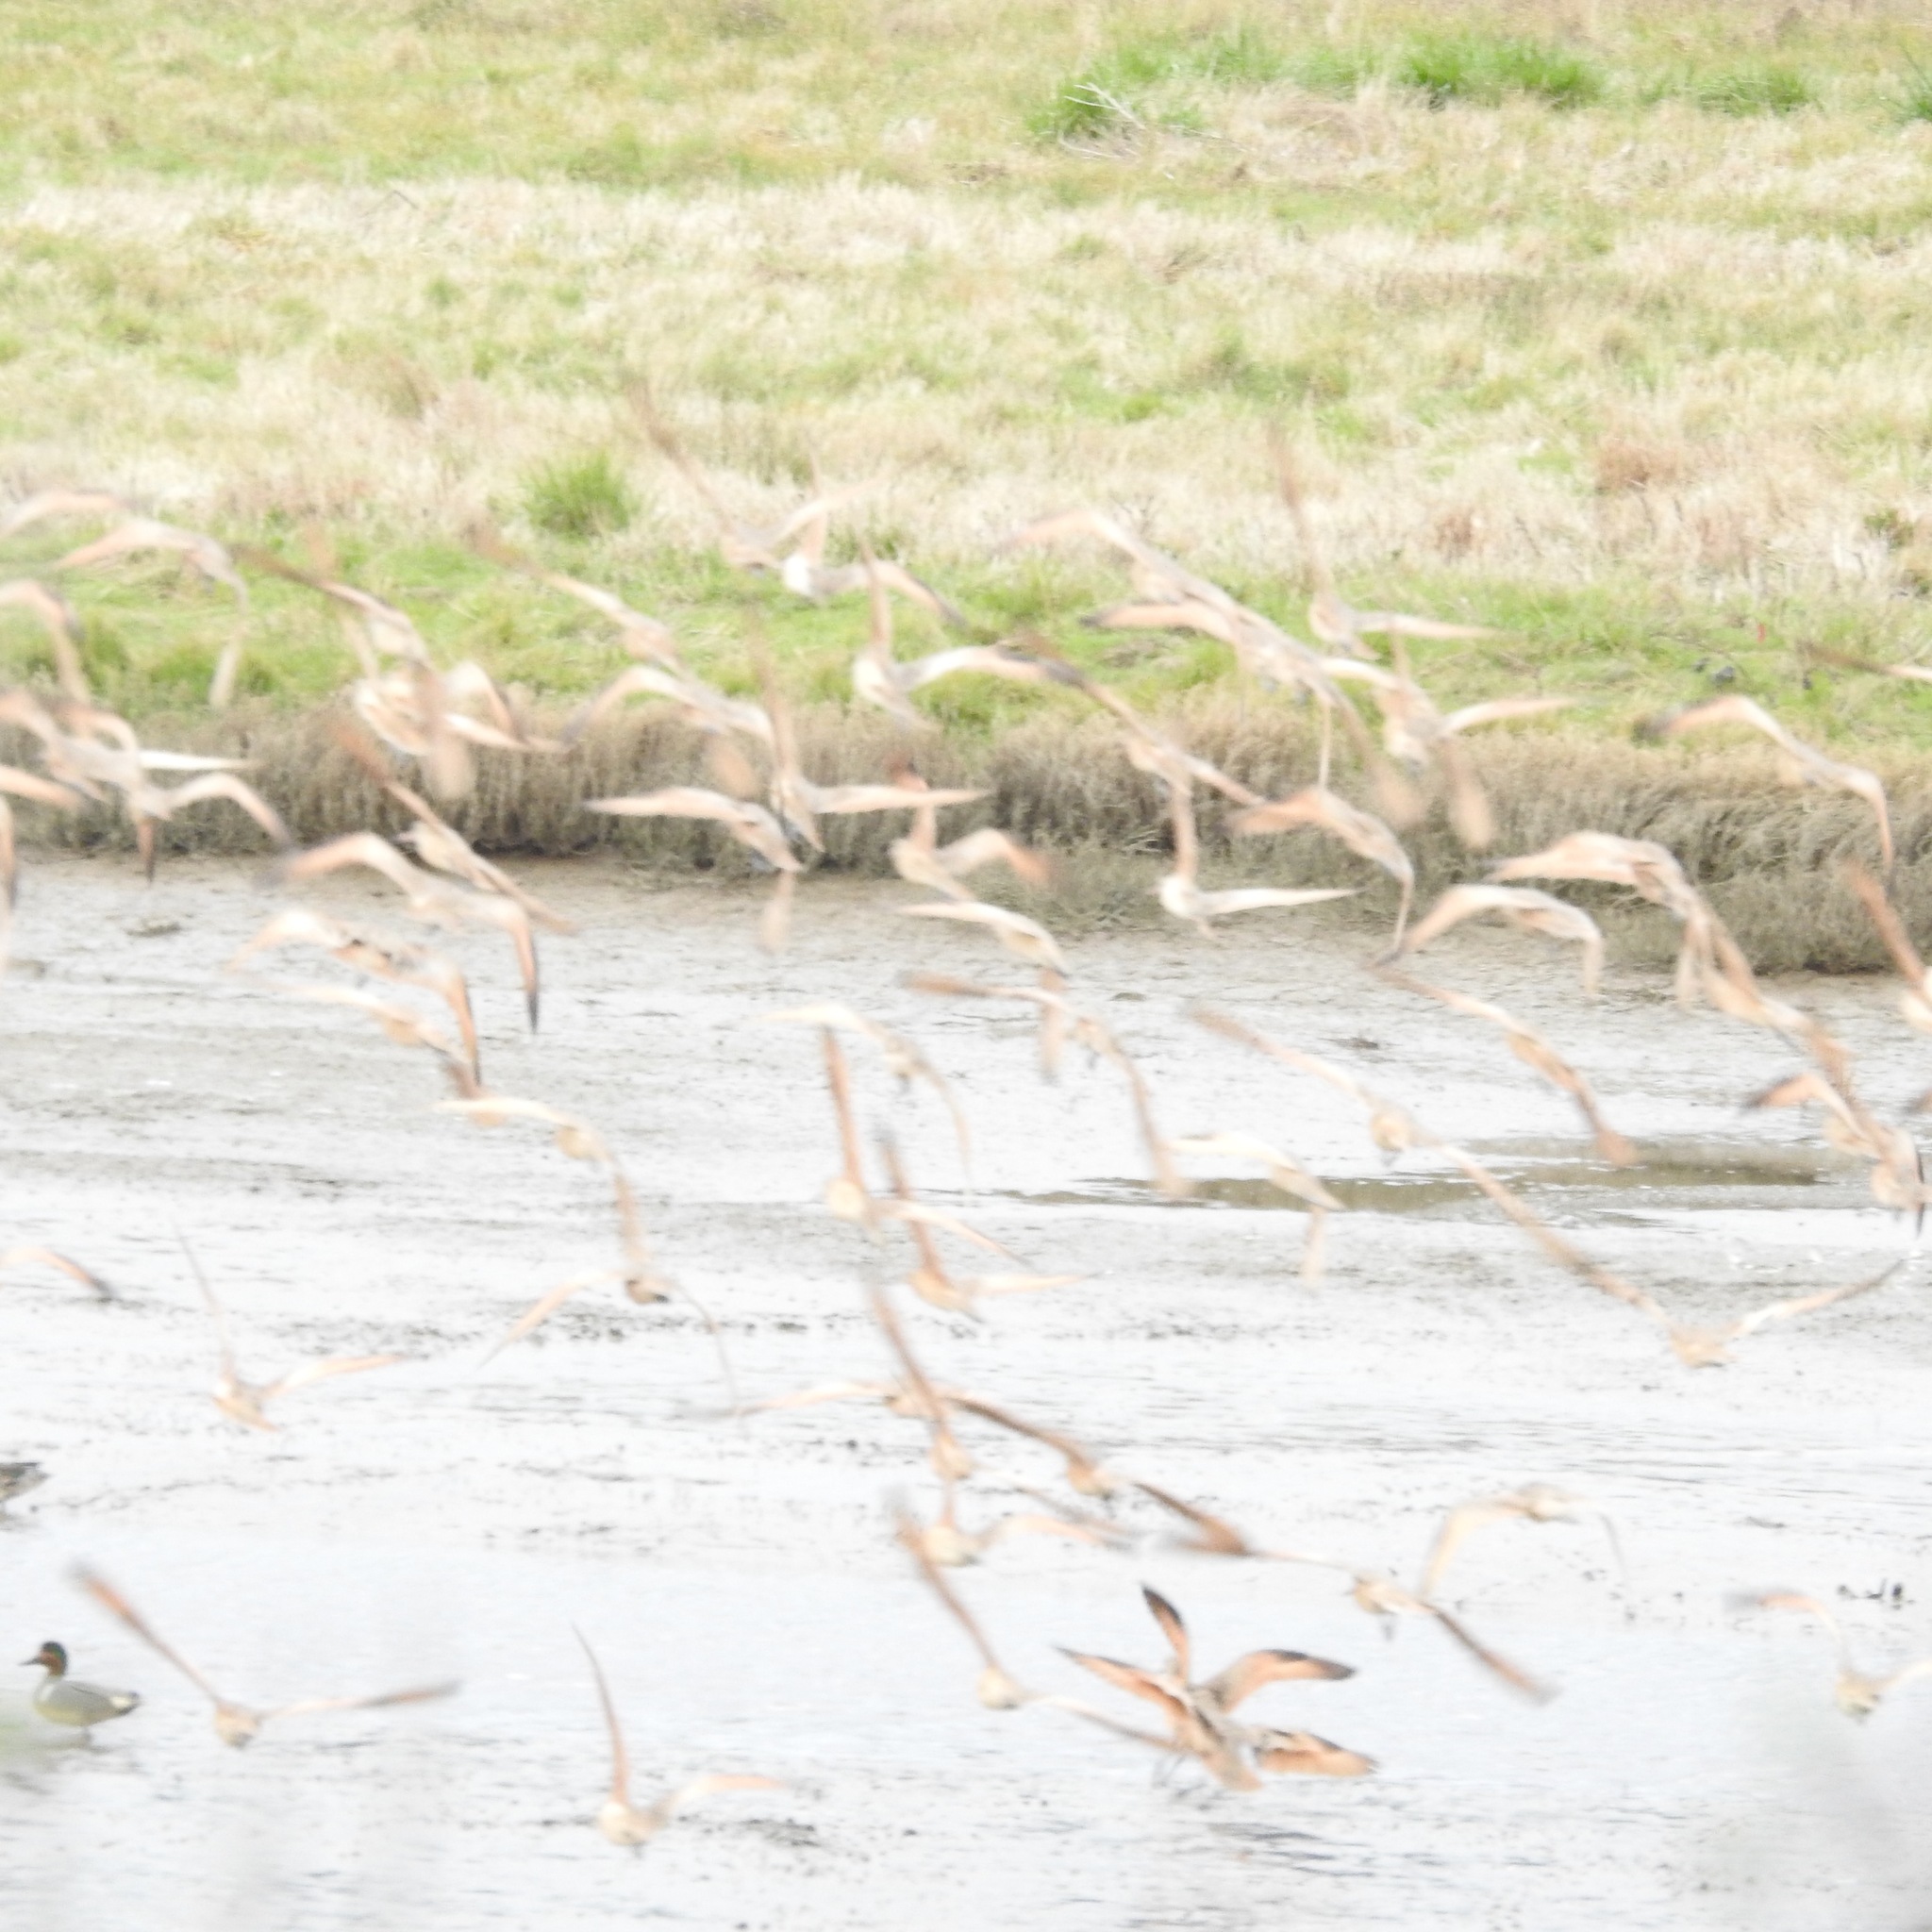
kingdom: Animalia
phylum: Chordata
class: Aves
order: Charadriiformes
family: Scolopacidae
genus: Limosa
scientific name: Limosa fedoa
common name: Marbled godwit
